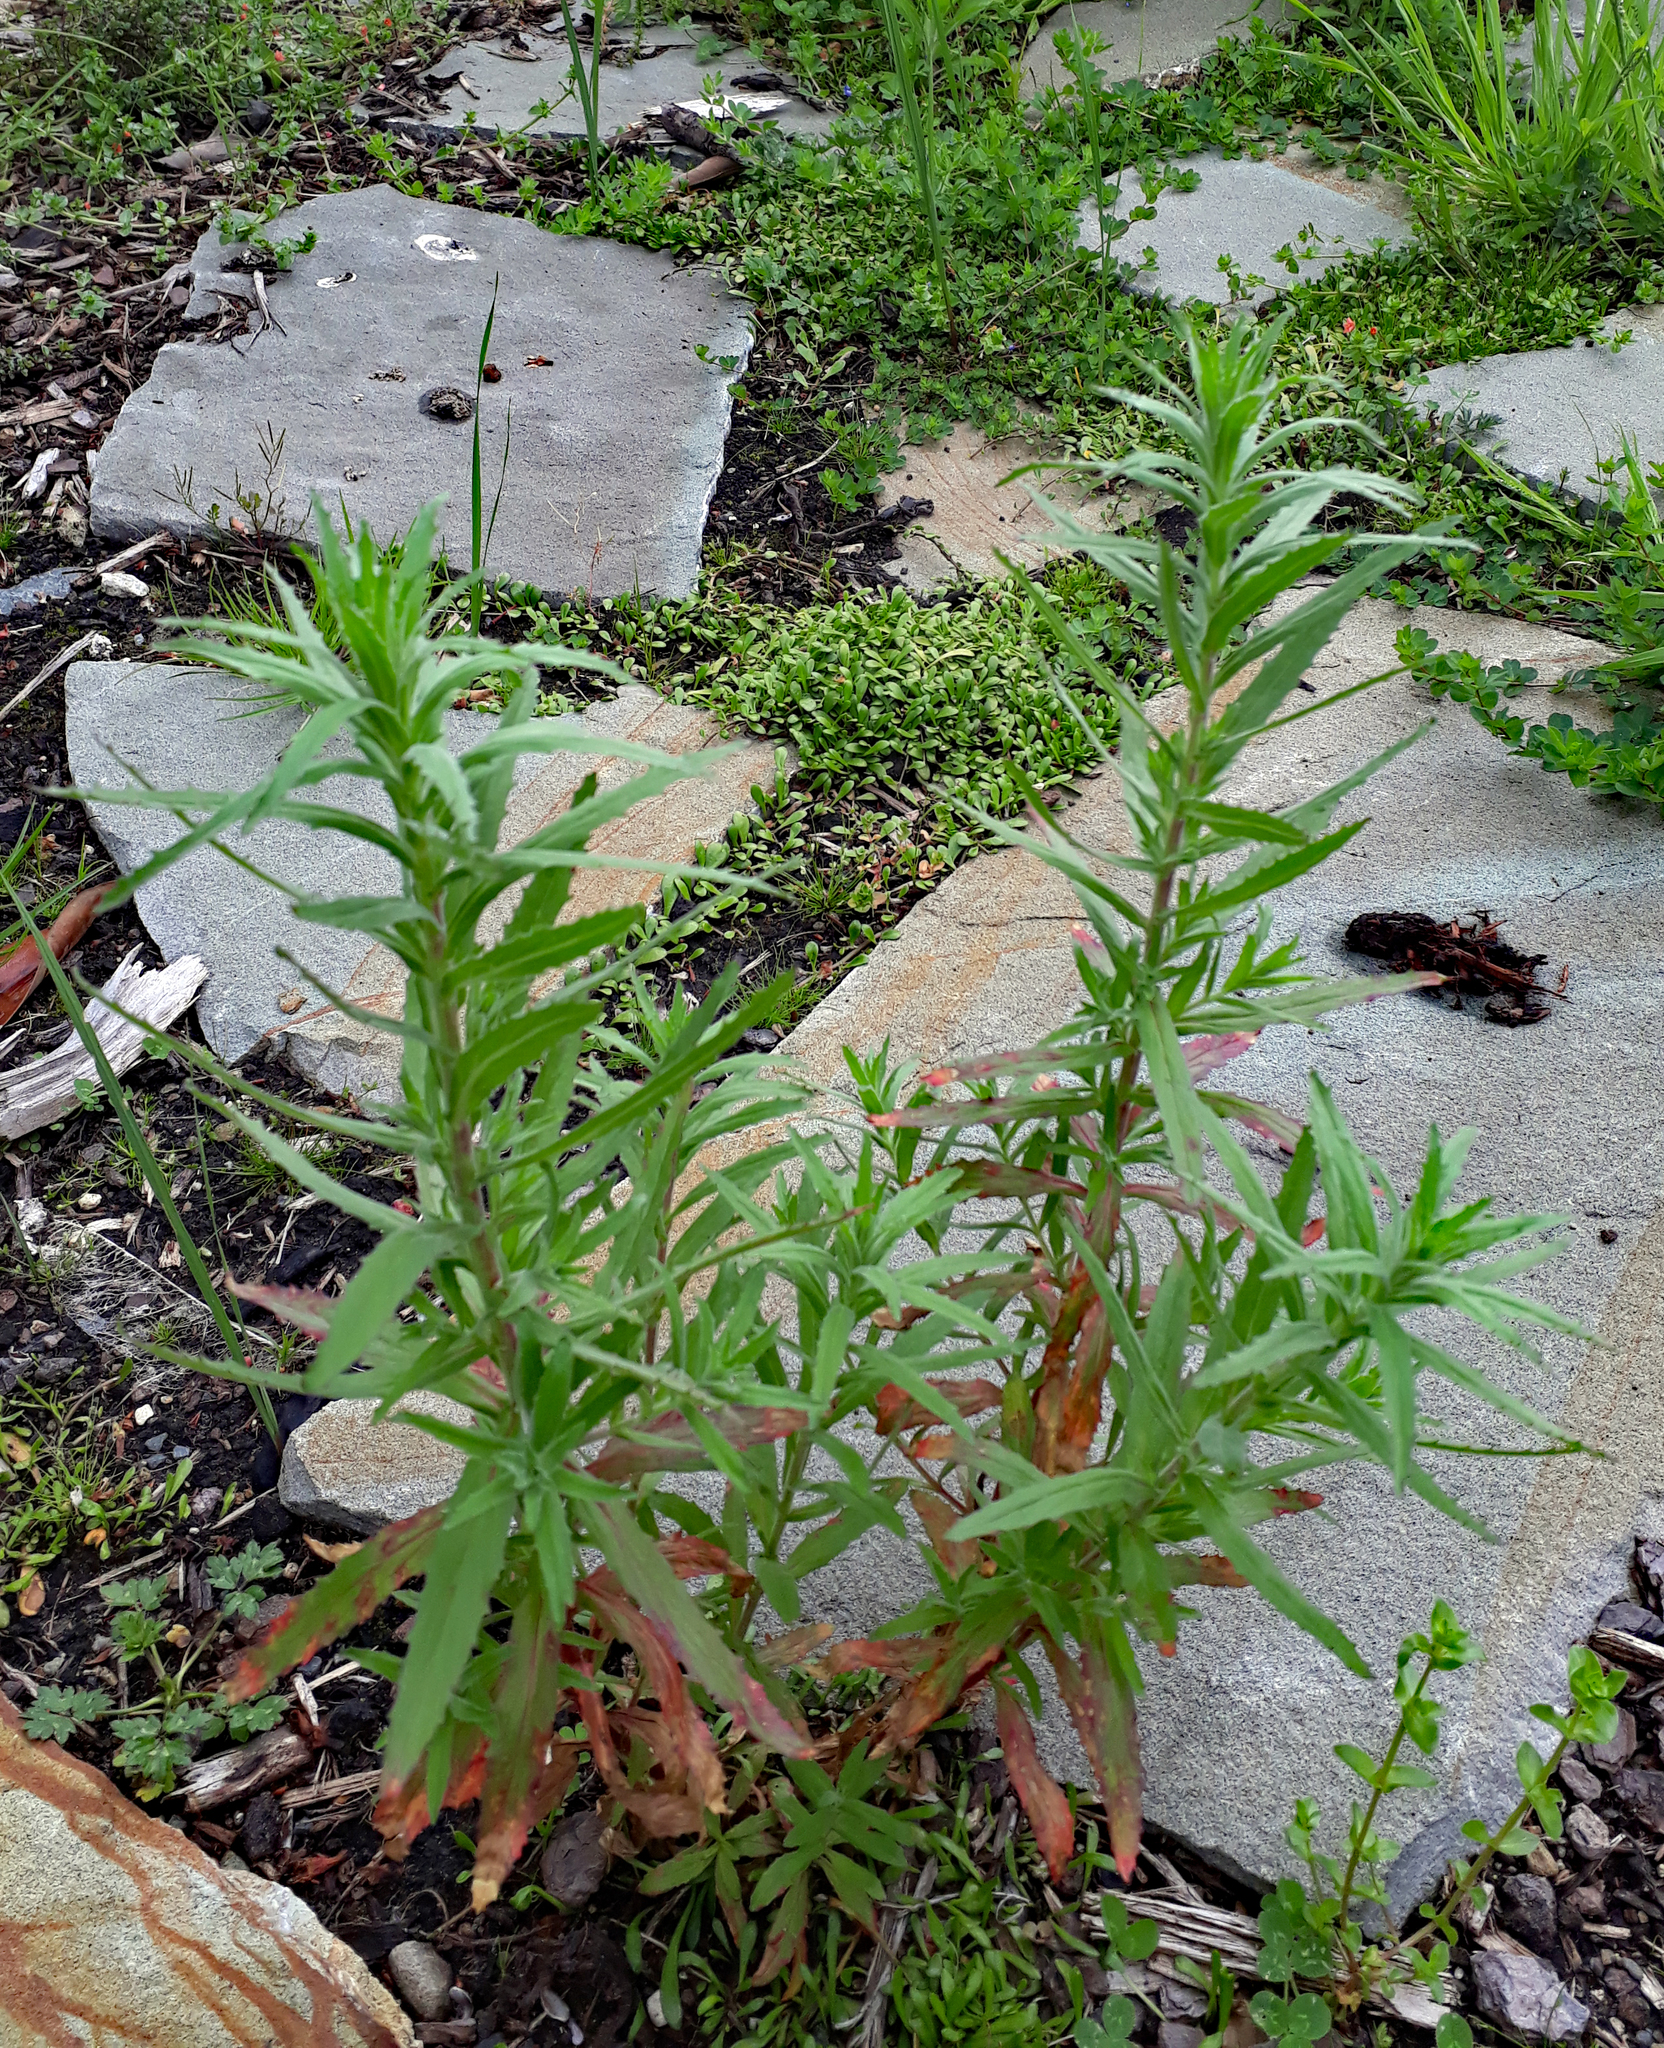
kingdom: Plantae
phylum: Tracheophyta
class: Magnoliopsida
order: Myrtales
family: Onagraceae
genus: Epilobium
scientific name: Epilobium hirtigerum
